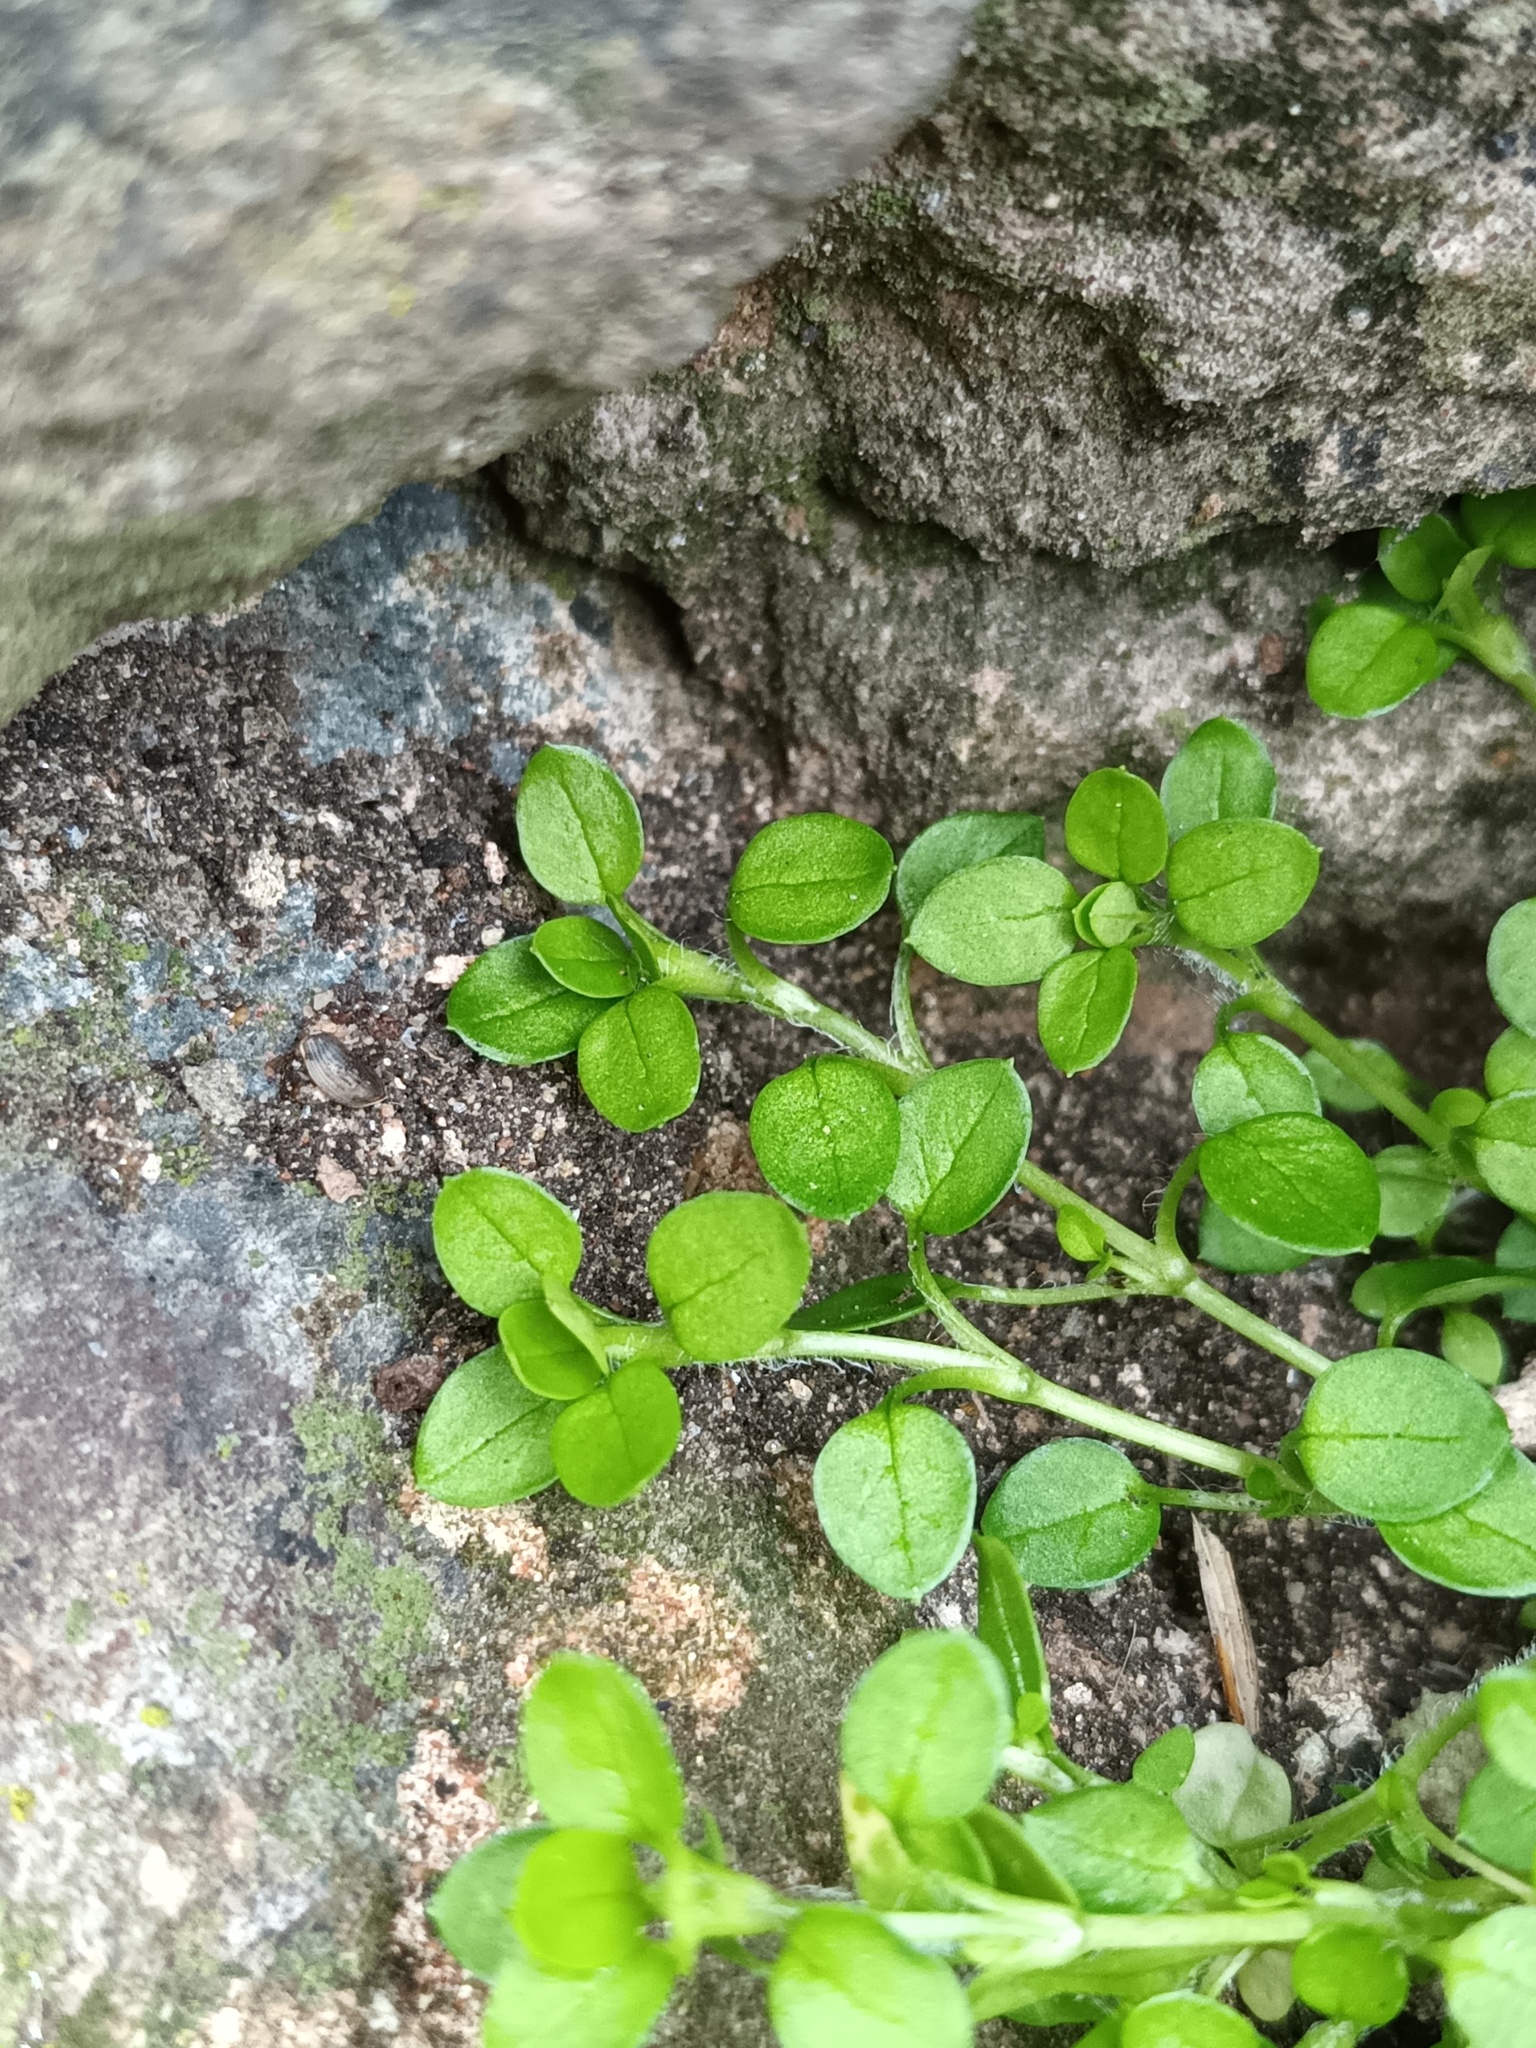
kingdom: Plantae
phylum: Tracheophyta
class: Magnoliopsida
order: Caryophyllales
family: Caryophyllaceae
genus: Stellaria
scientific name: Stellaria media
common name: Common chickweed
